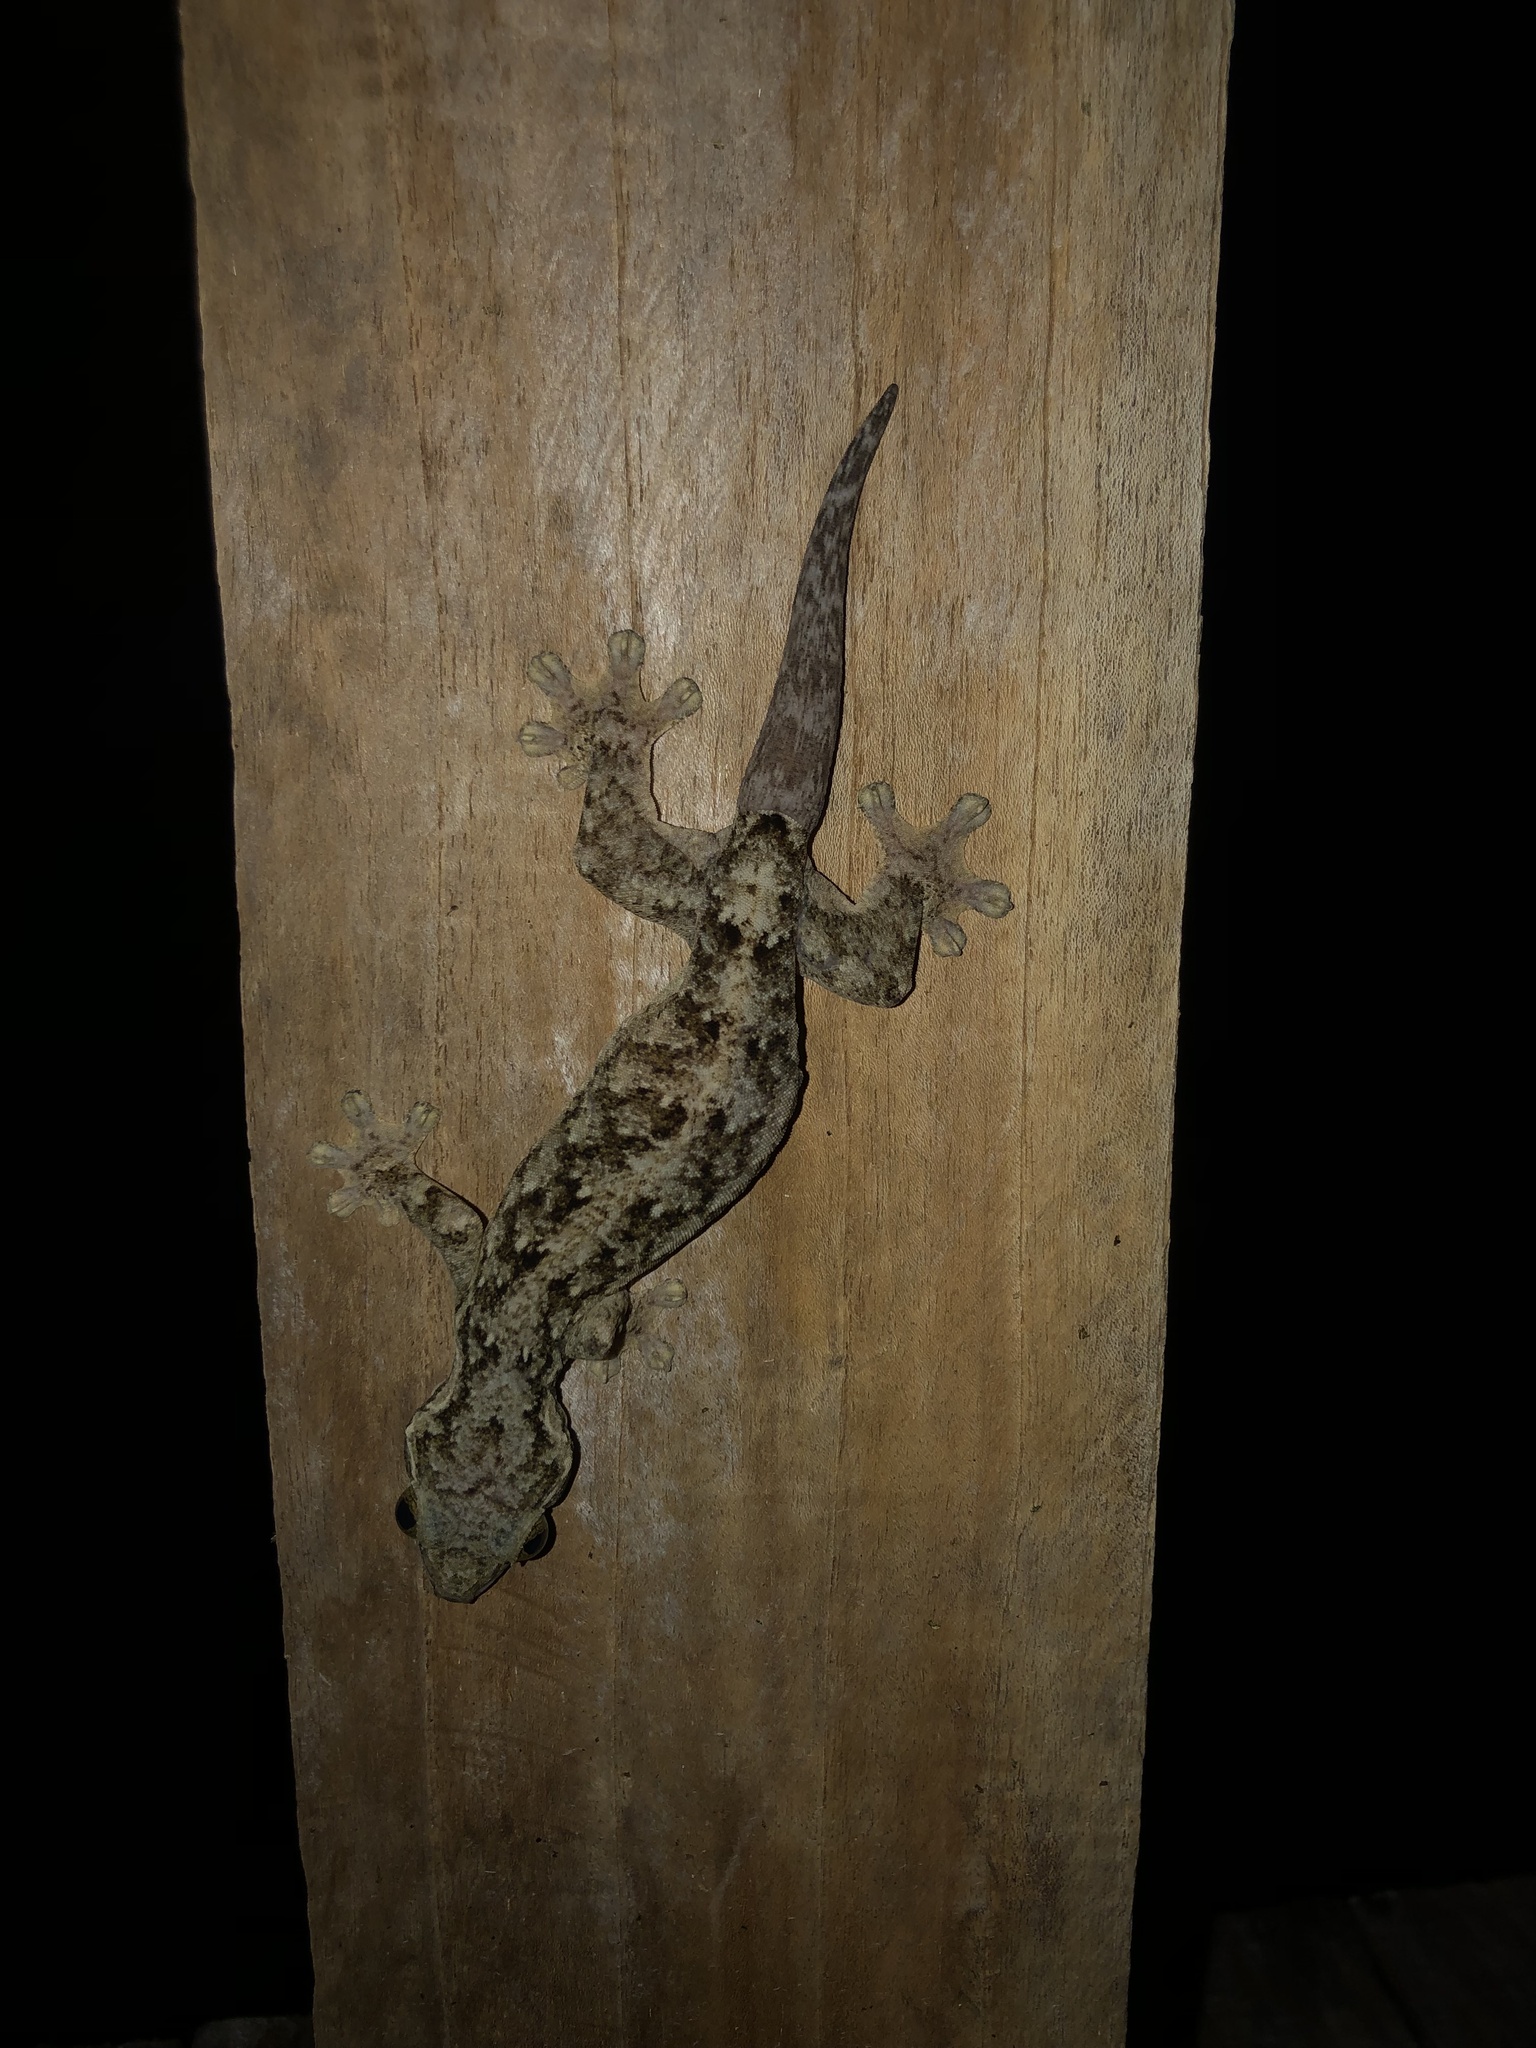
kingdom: Animalia
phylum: Chordata
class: Squamata
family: Phyllodactylidae
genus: Thecadactylus
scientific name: Thecadactylus rapicauda
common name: Turnip-tailed gecko
